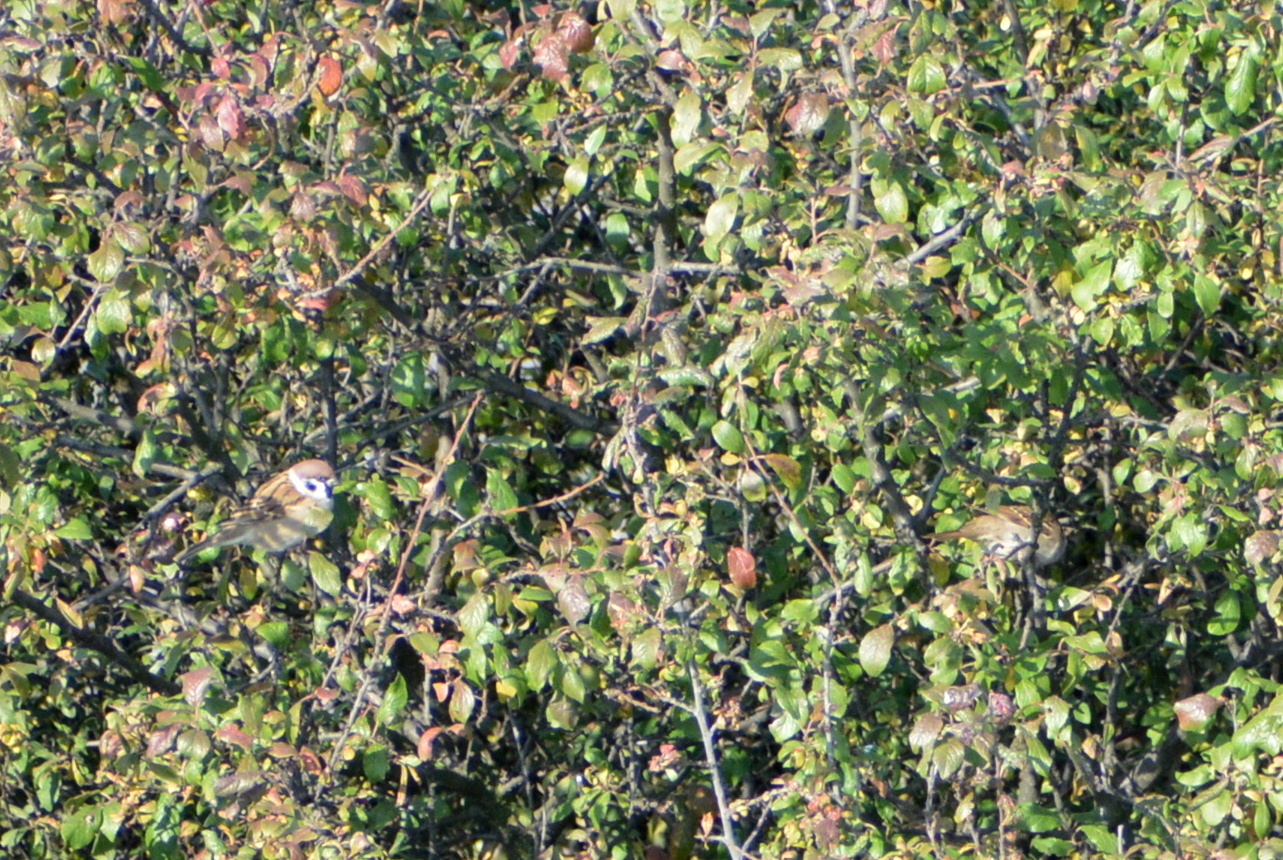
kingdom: Animalia
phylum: Chordata
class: Aves
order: Passeriformes
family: Passeridae
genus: Passer
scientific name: Passer montanus
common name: Eurasian tree sparrow
